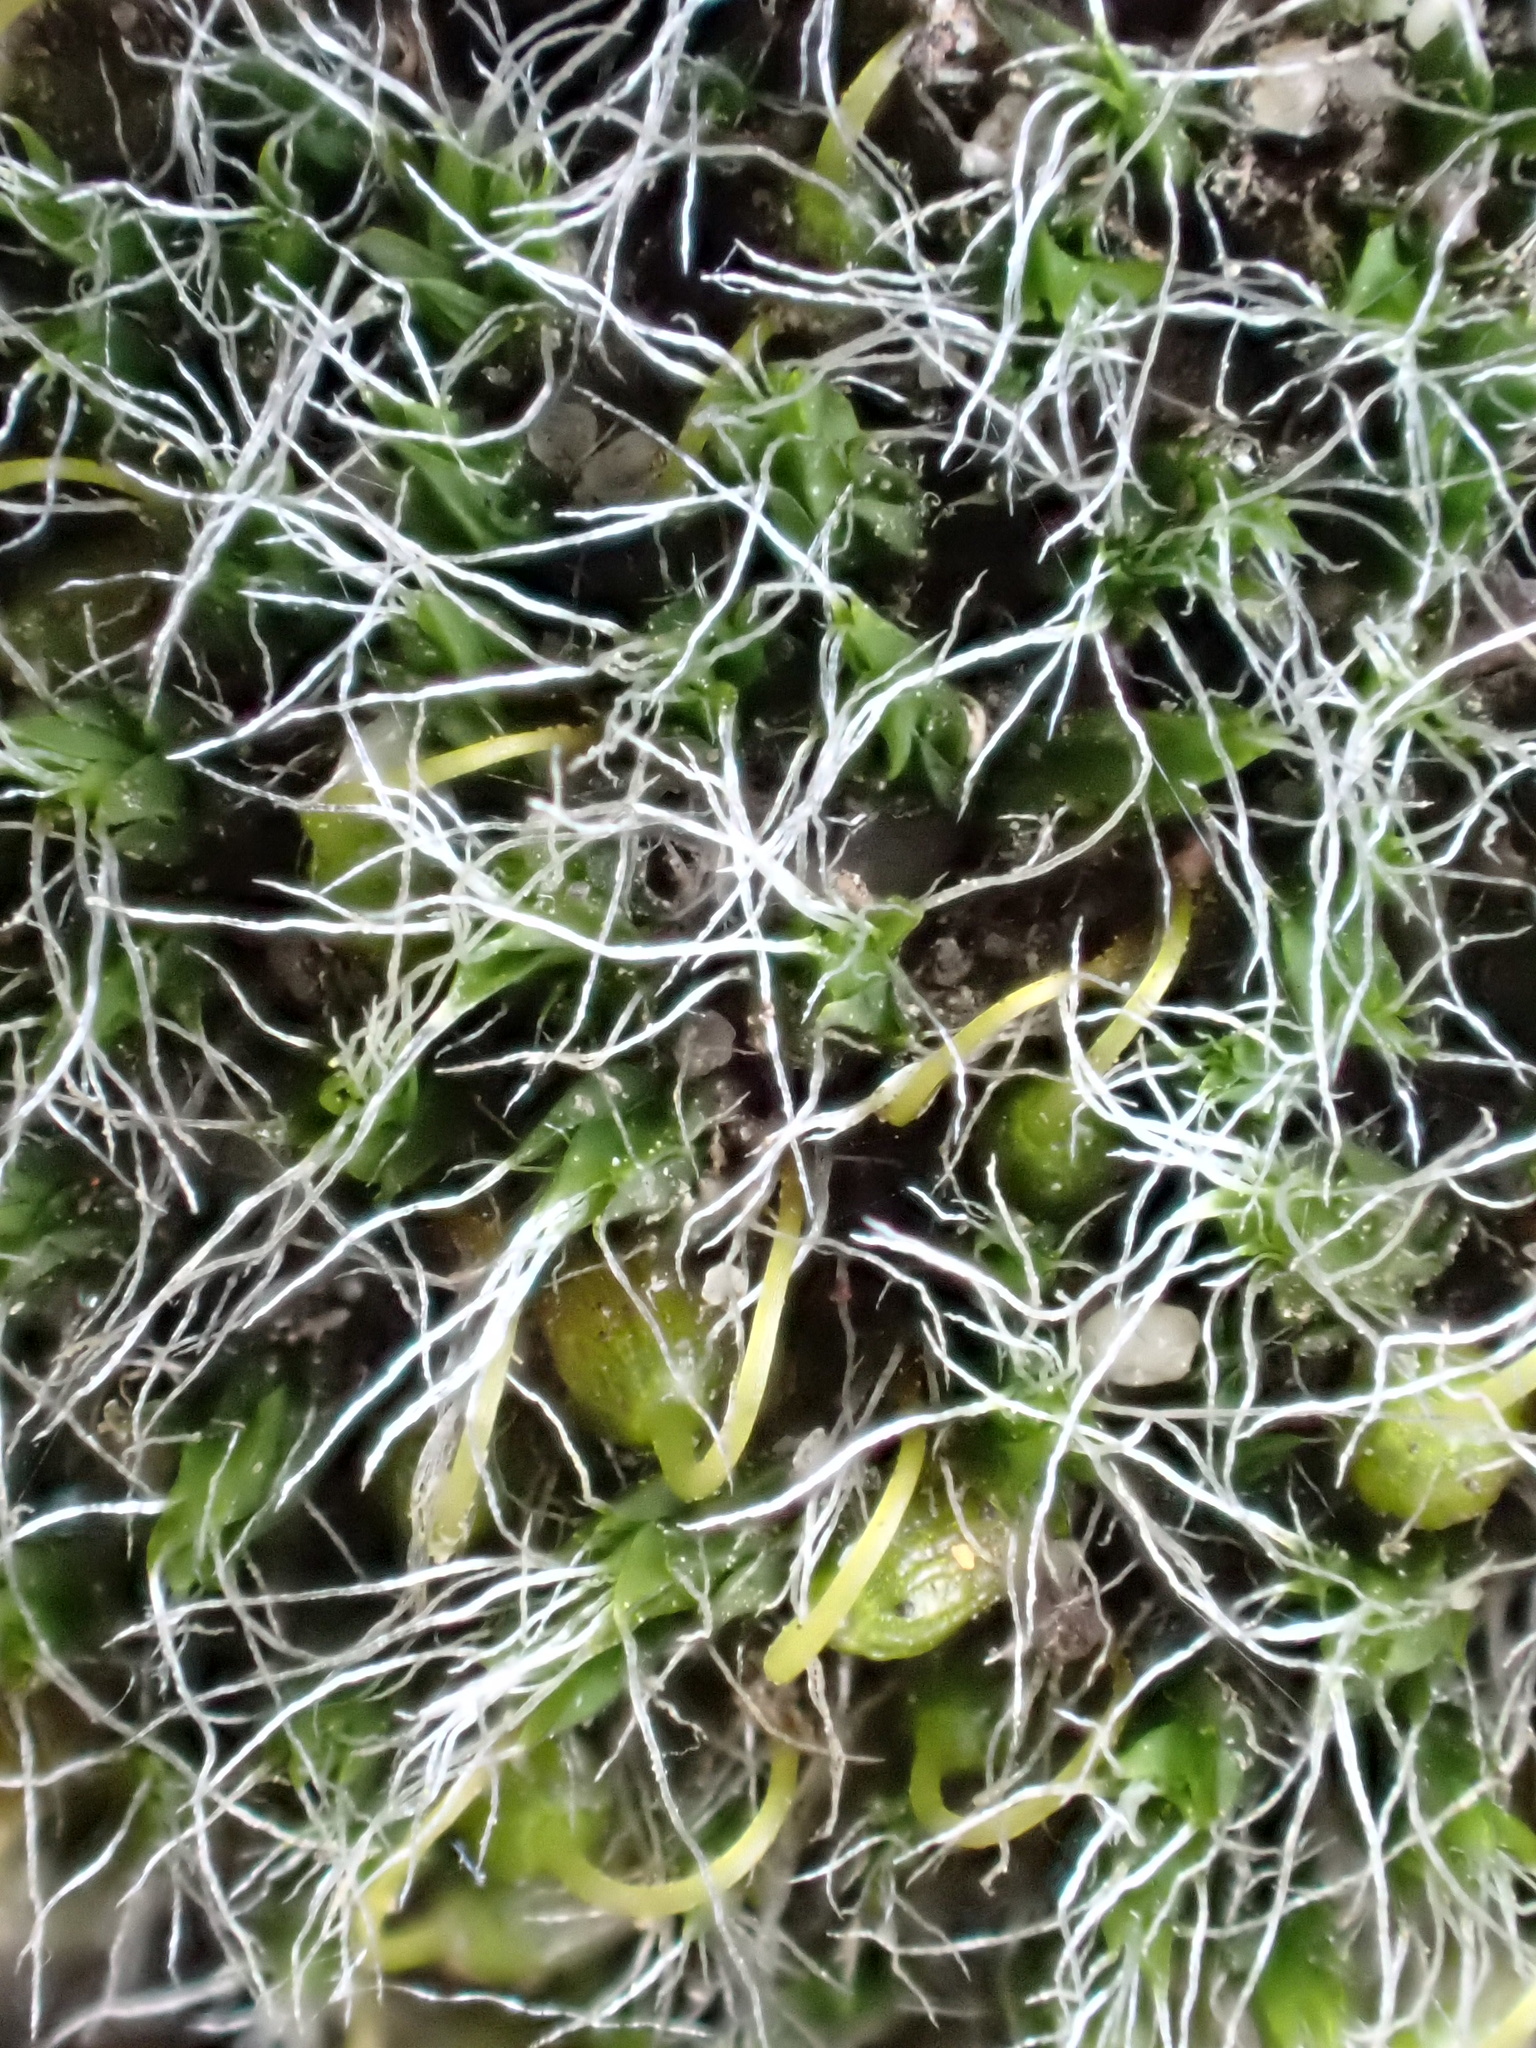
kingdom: Plantae
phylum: Bryophyta
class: Bryopsida
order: Grimmiales
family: Grimmiaceae
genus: Grimmia
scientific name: Grimmia pulvinata
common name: Grey-cushioned grimmia
